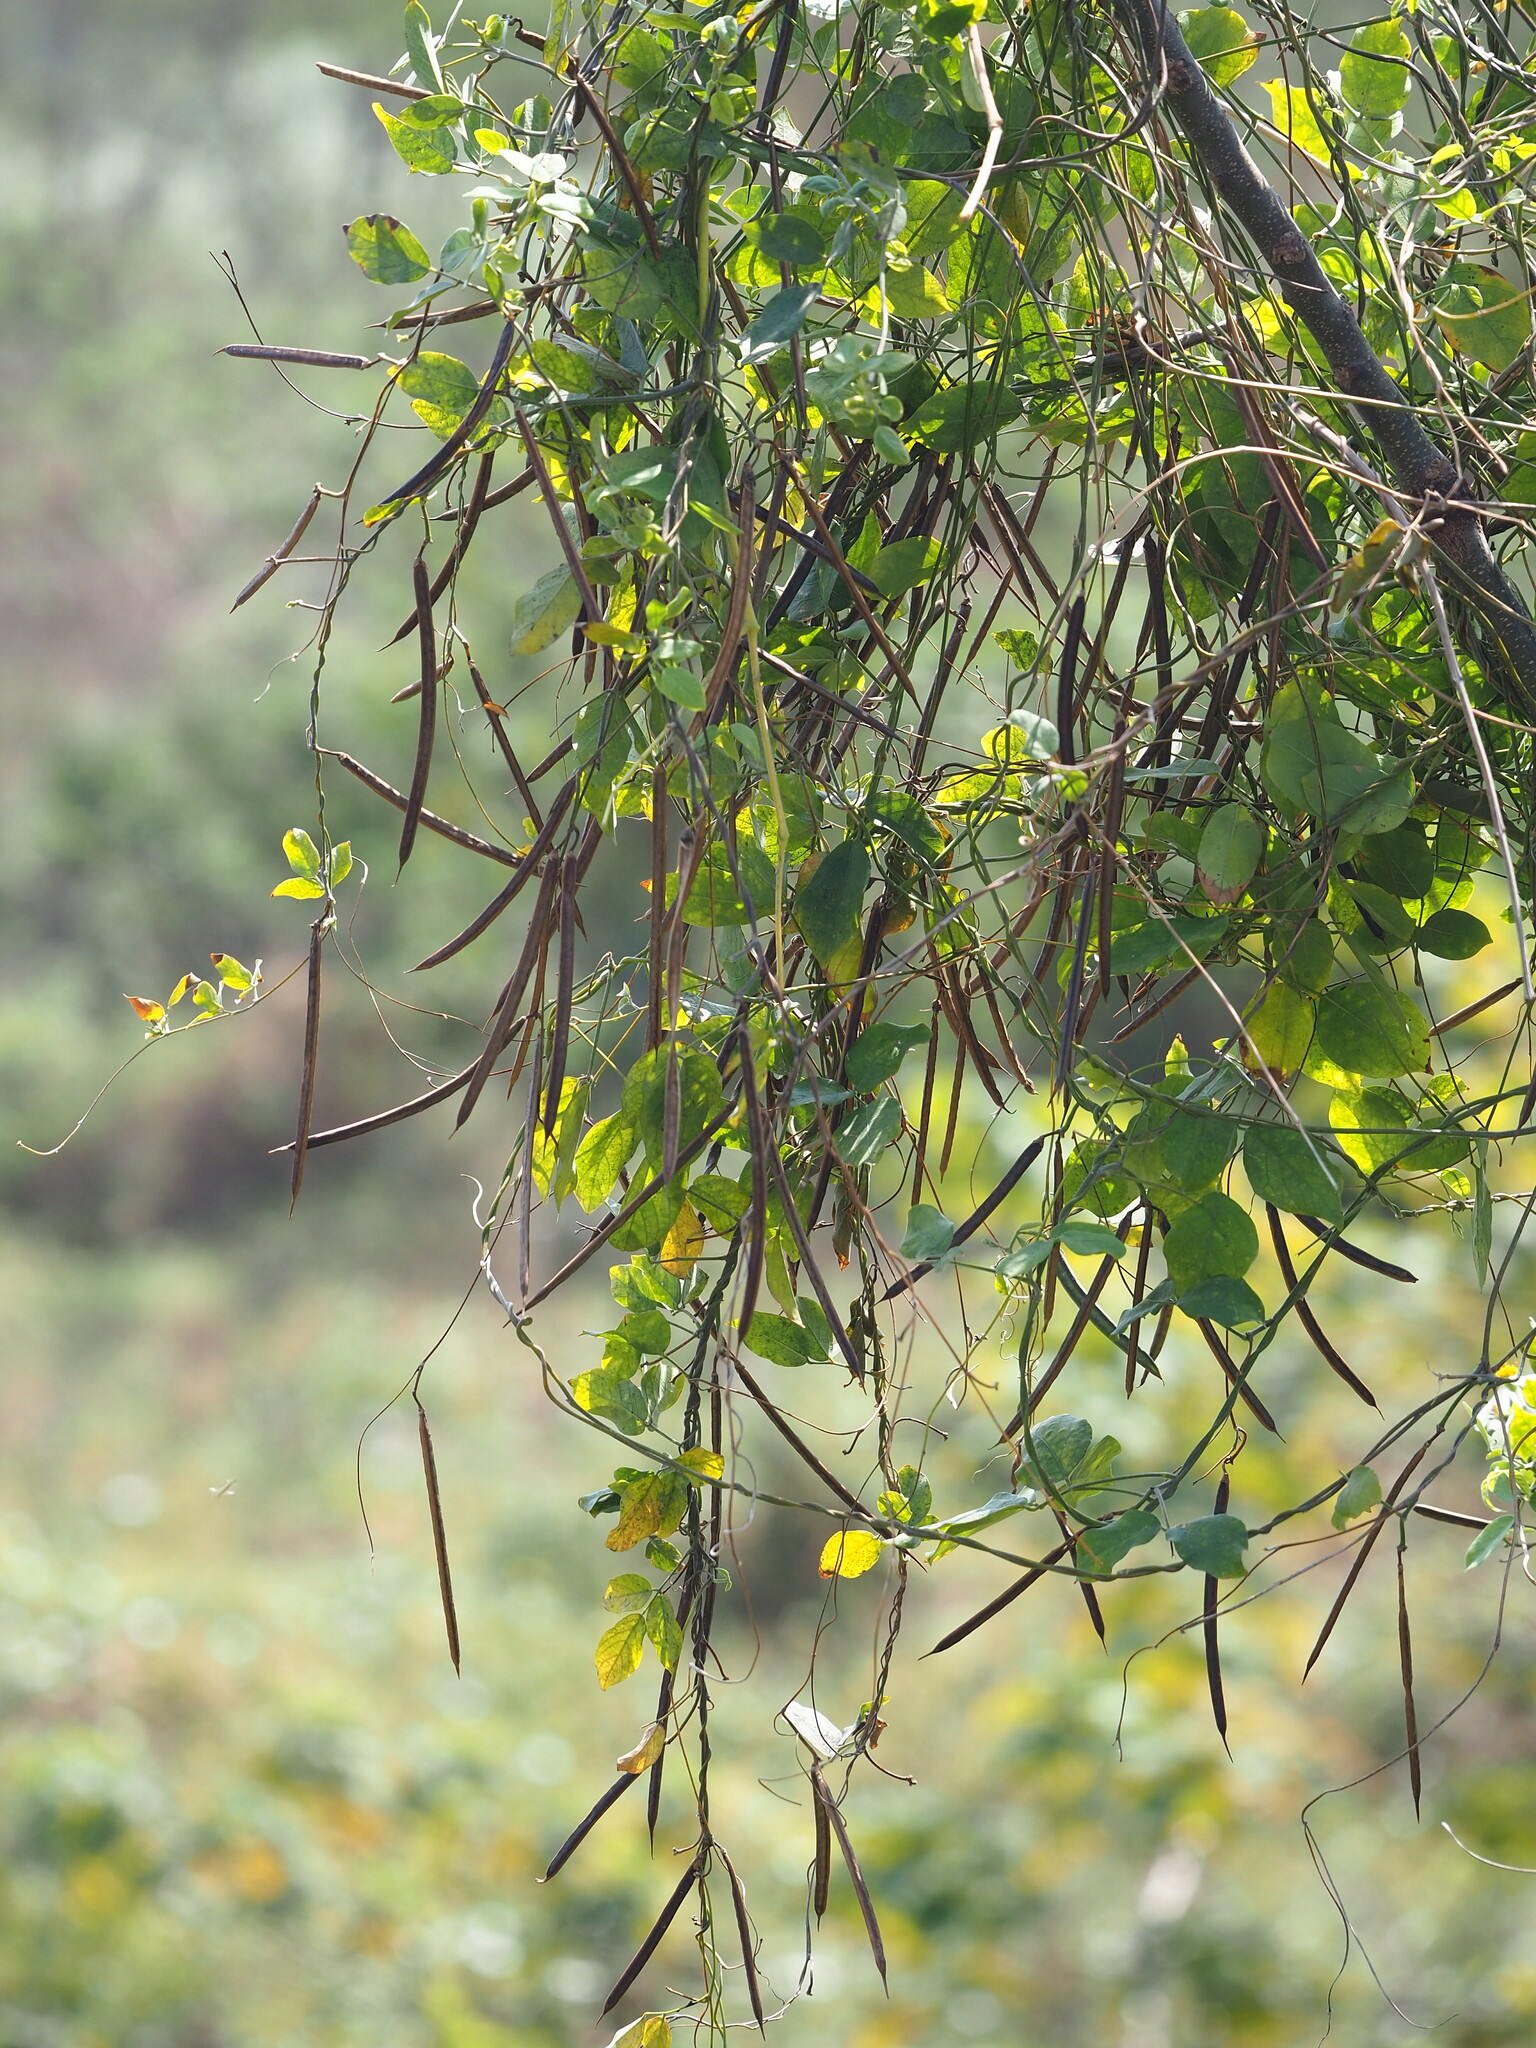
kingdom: Plantae
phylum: Tracheophyta
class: Magnoliopsida
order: Fabales
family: Fabaceae
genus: Centrosema
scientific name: Centrosema pubescens
